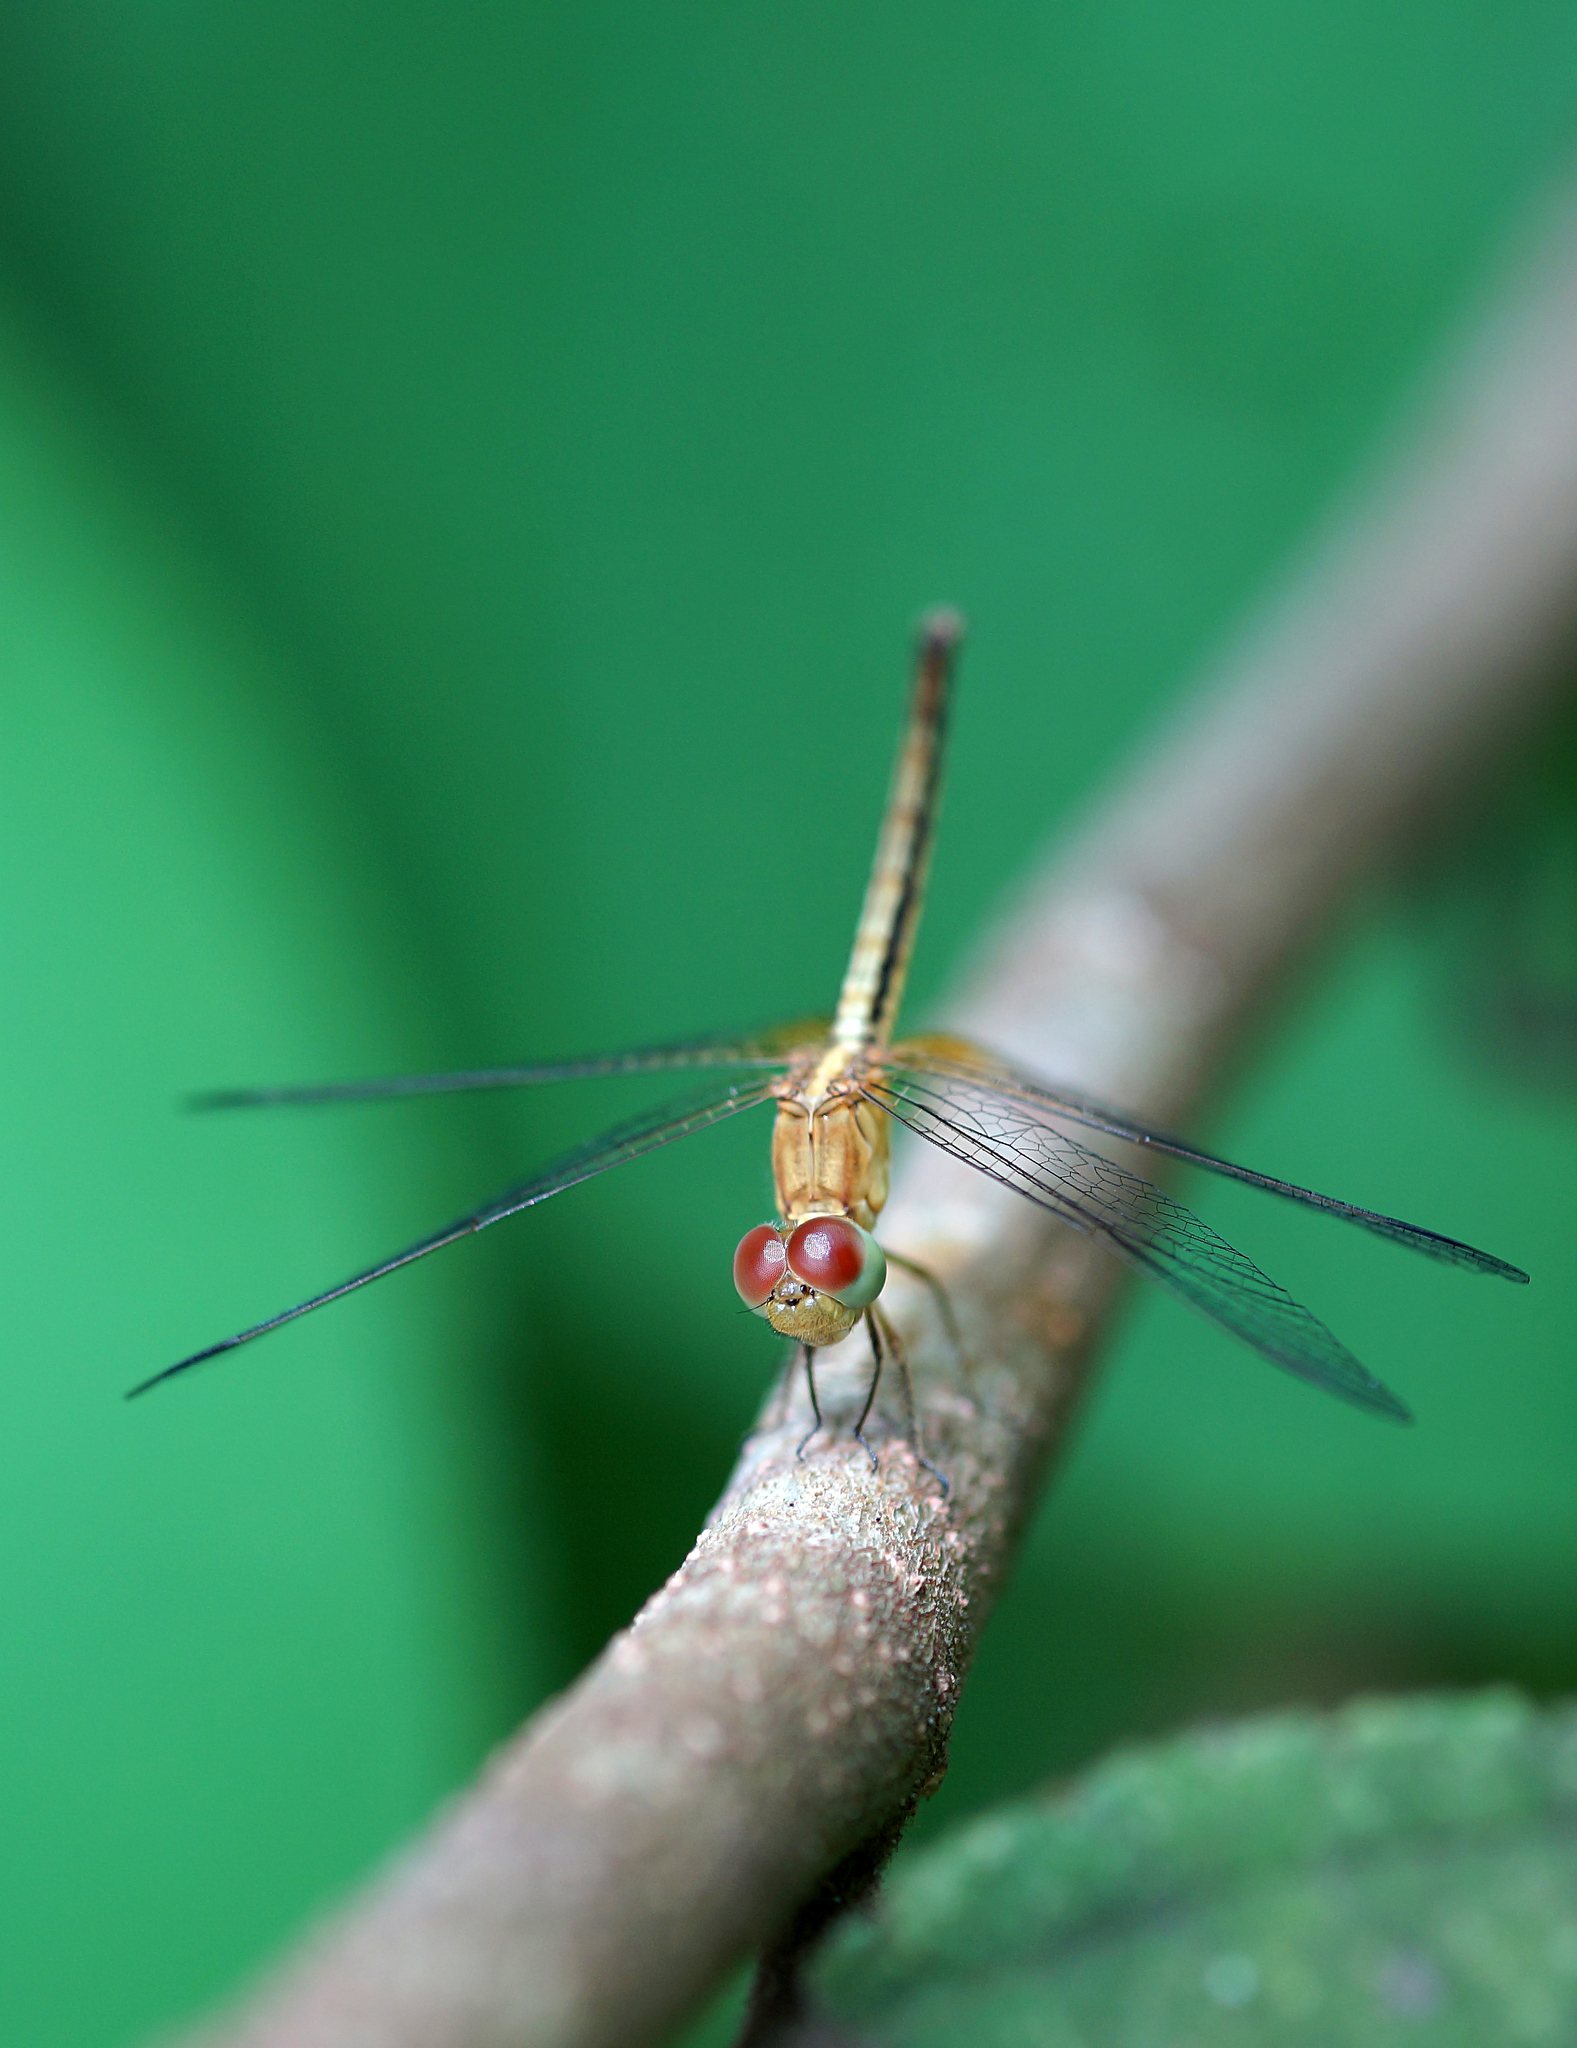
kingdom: Animalia
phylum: Arthropoda
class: Insecta
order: Odonata
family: Libellulidae
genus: Neurothemis
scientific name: Neurothemis intermedia
